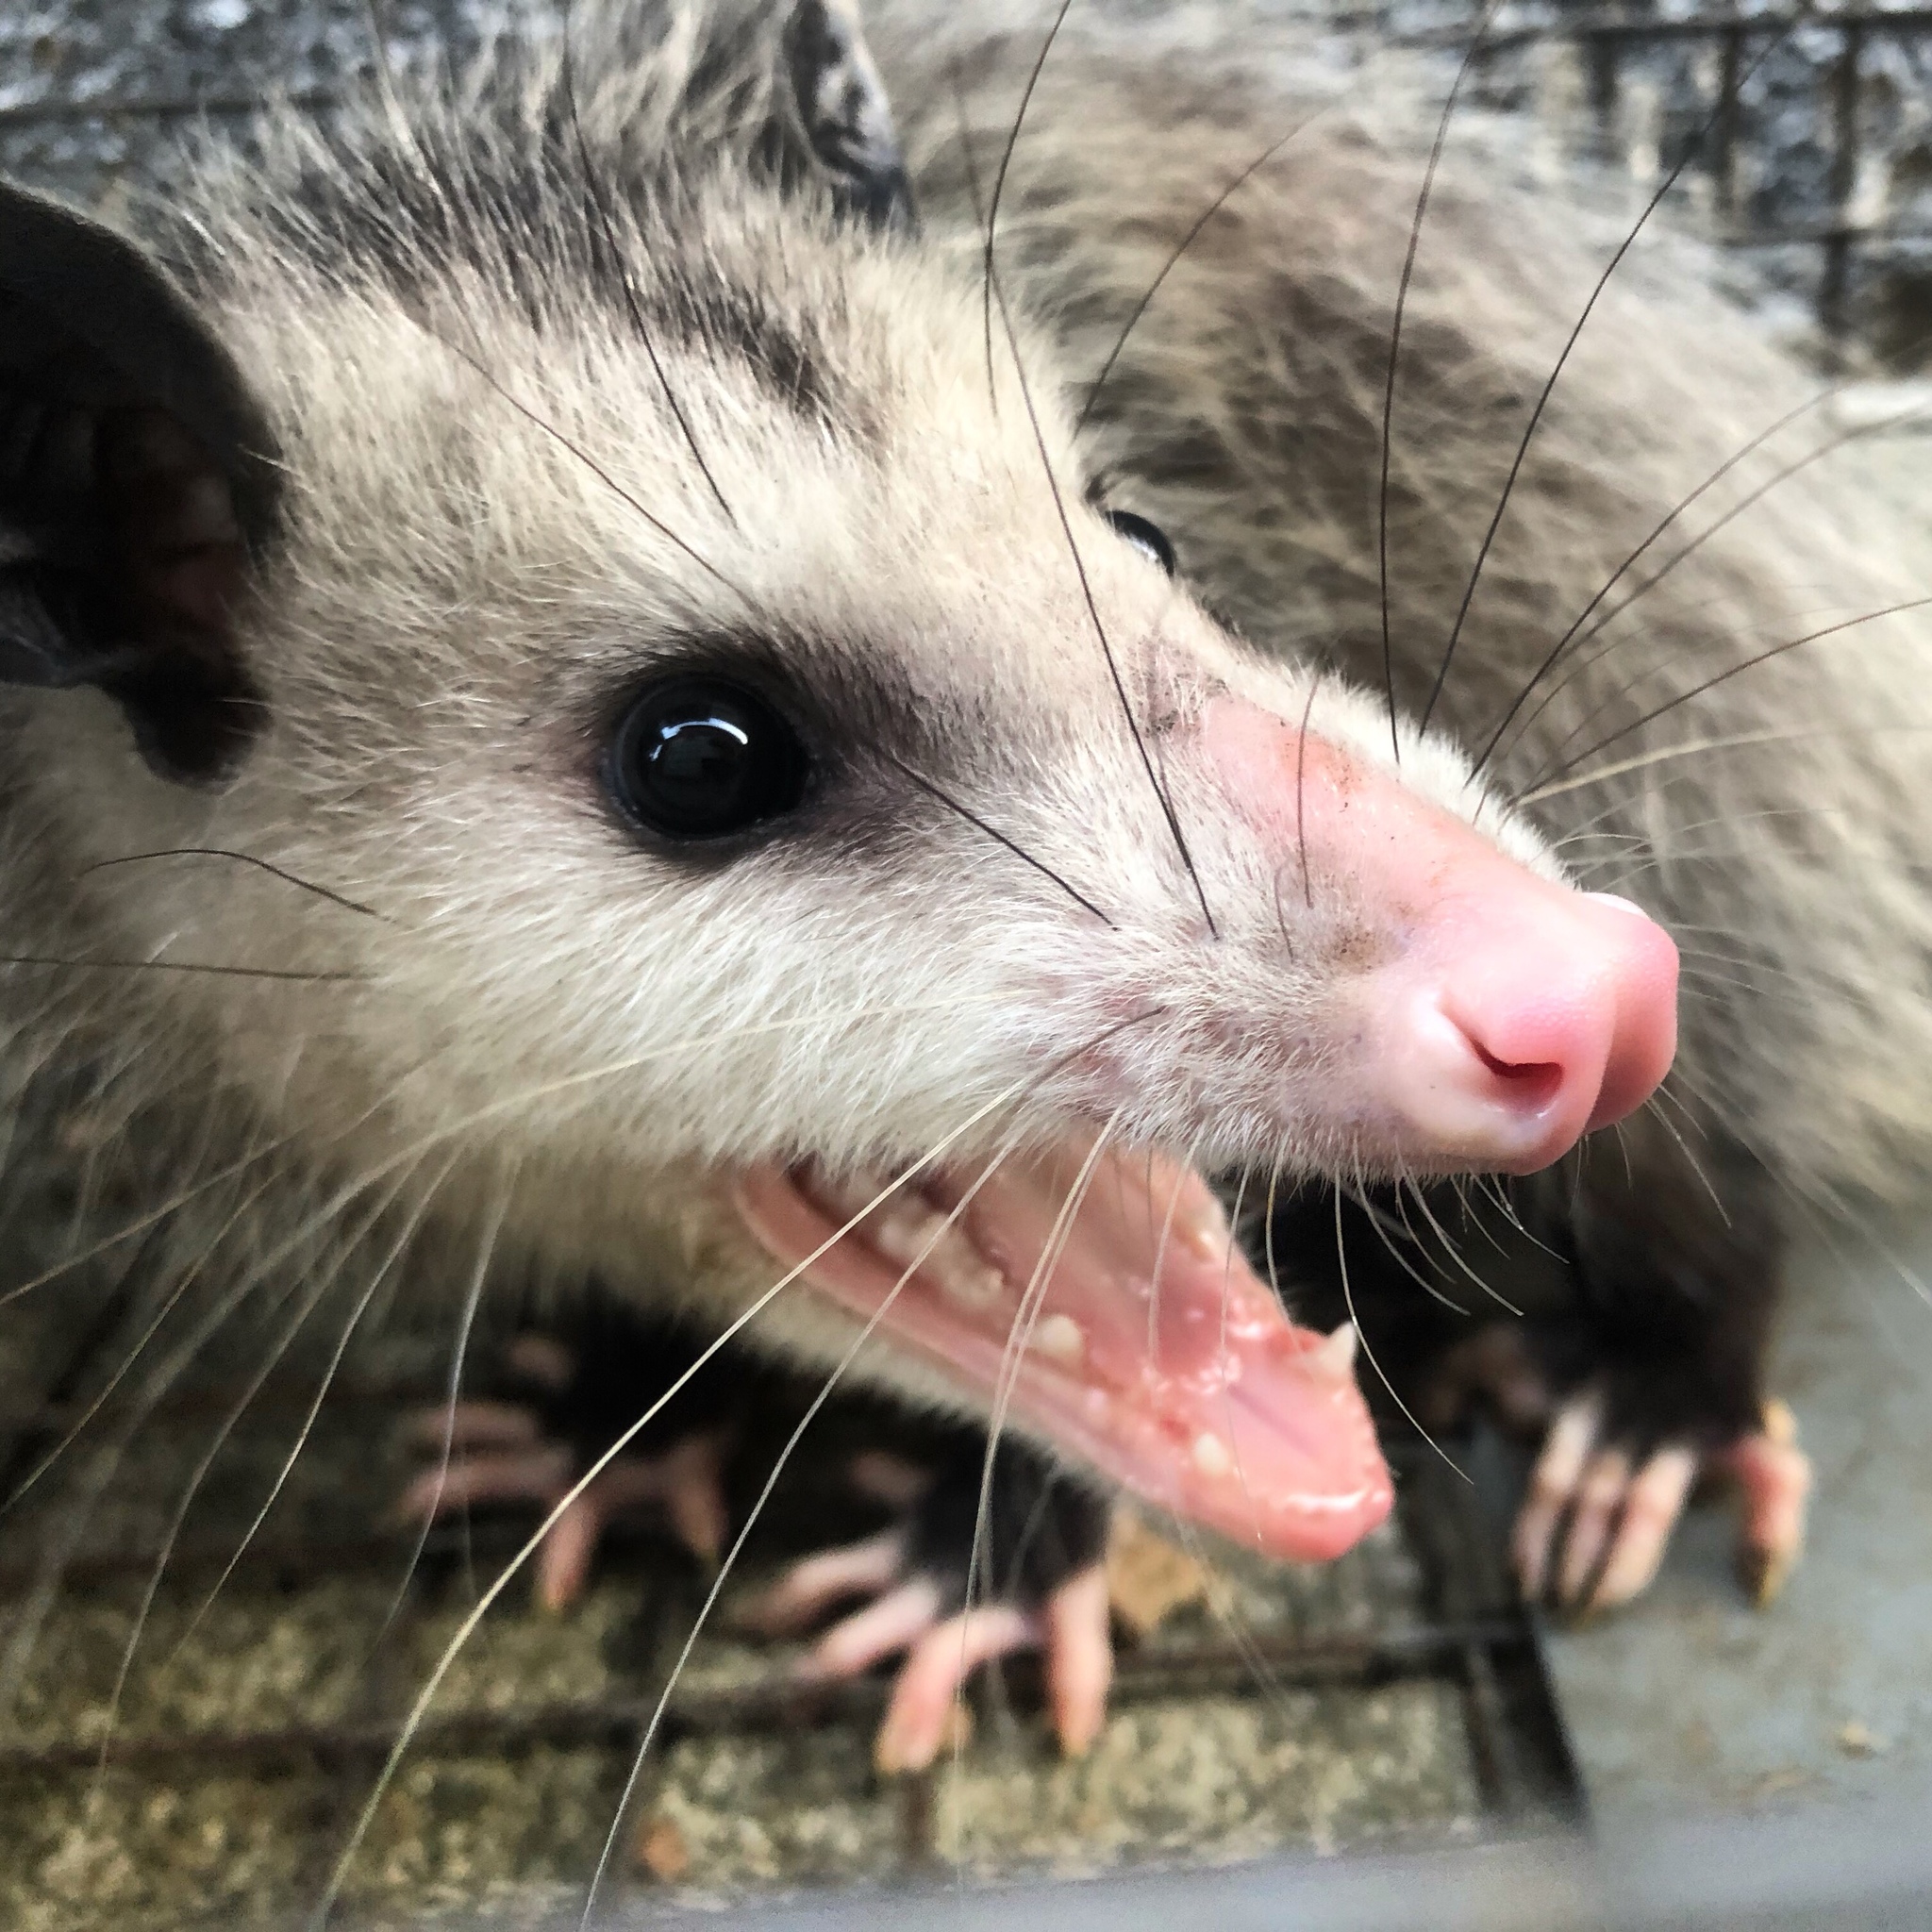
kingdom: Animalia
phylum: Chordata
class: Mammalia
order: Didelphimorphia
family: Didelphidae
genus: Didelphis
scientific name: Didelphis virginiana
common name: Virginia opossum
